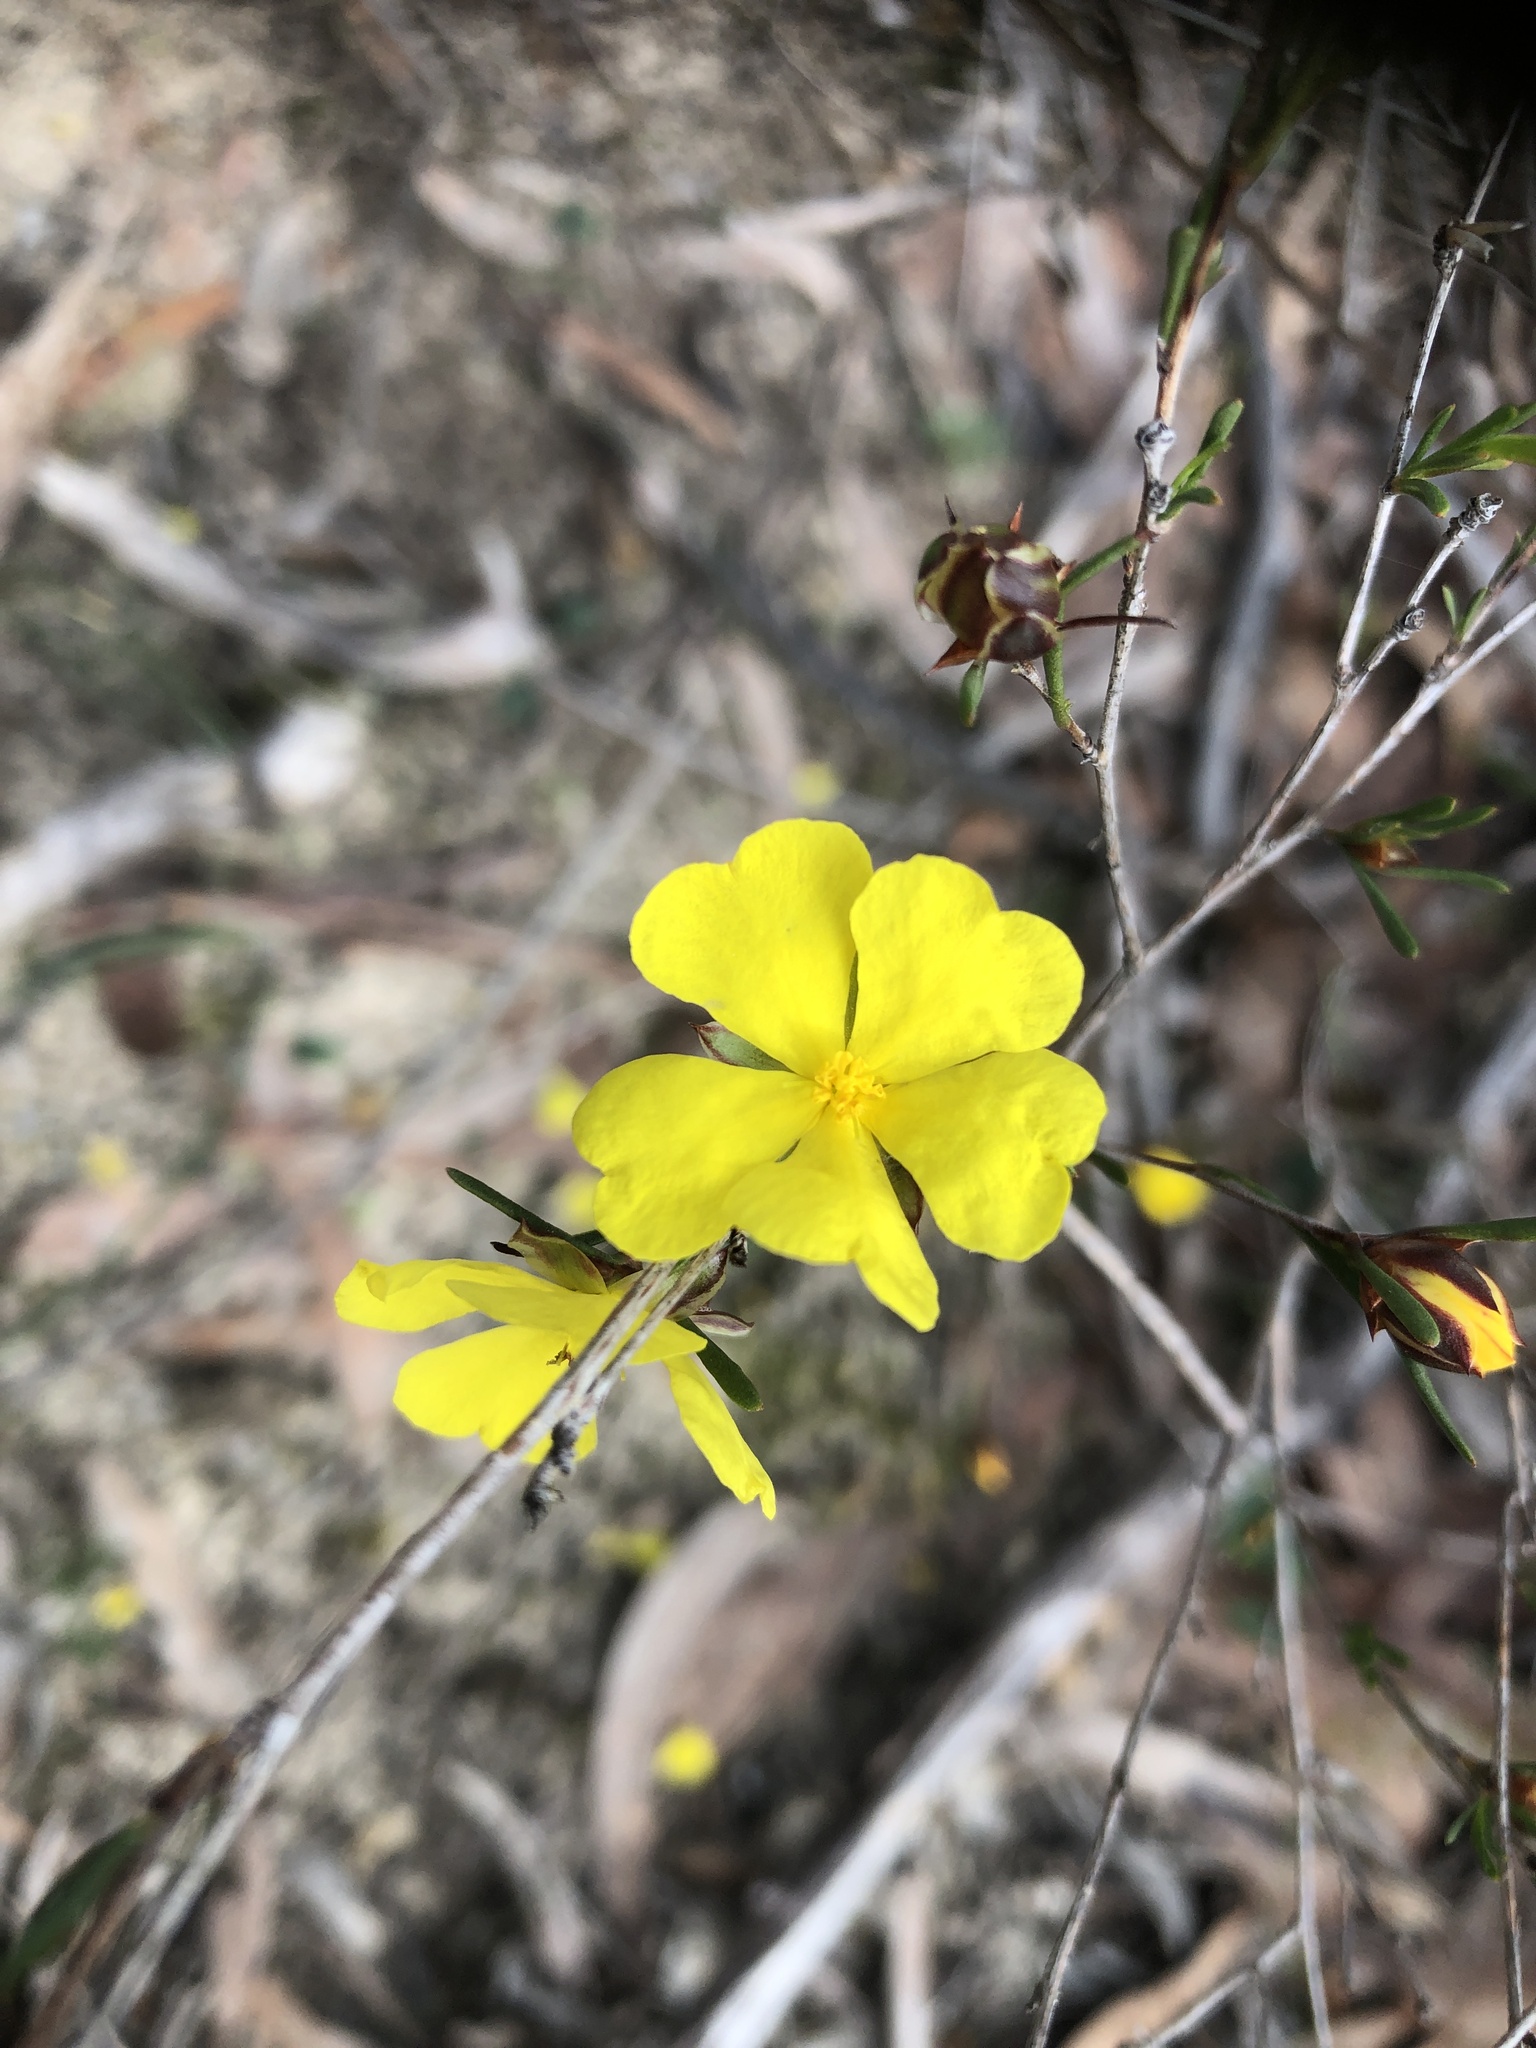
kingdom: Plantae
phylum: Tracheophyta
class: Magnoliopsida
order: Dilleniales
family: Dilleniaceae
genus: Hibbertia
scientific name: Hibbertia virgata
